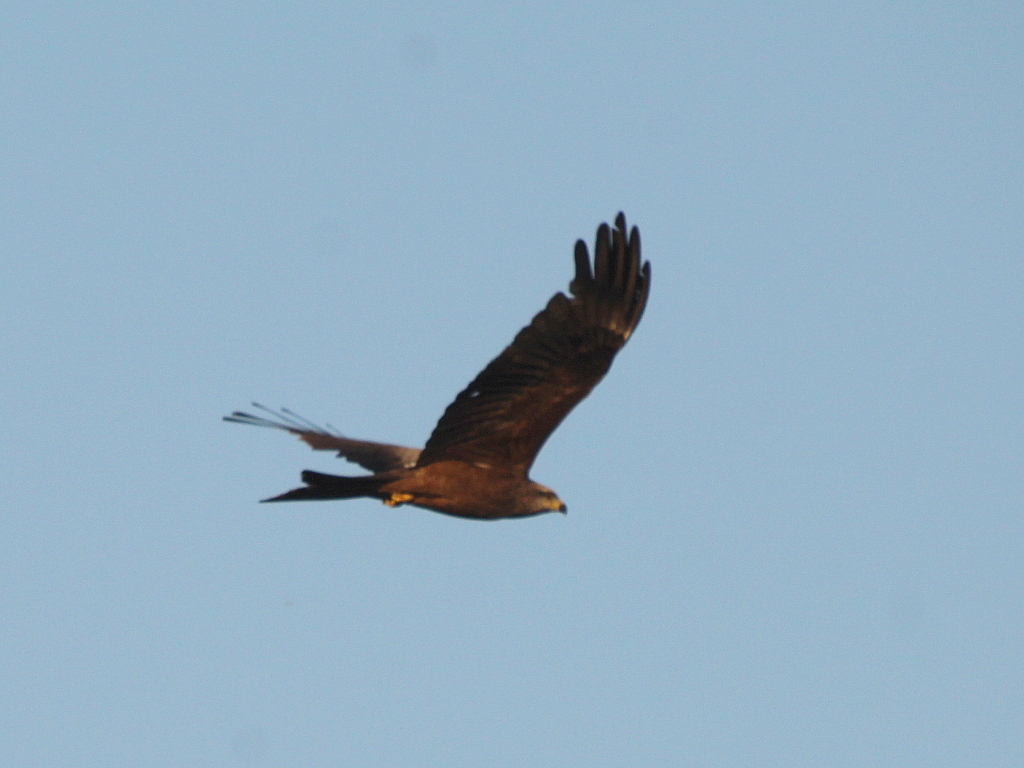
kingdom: Animalia
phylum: Chordata
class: Aves
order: Accipitriformes
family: Accipitridae
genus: Milvus
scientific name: Milvus migrans
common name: Black kite
